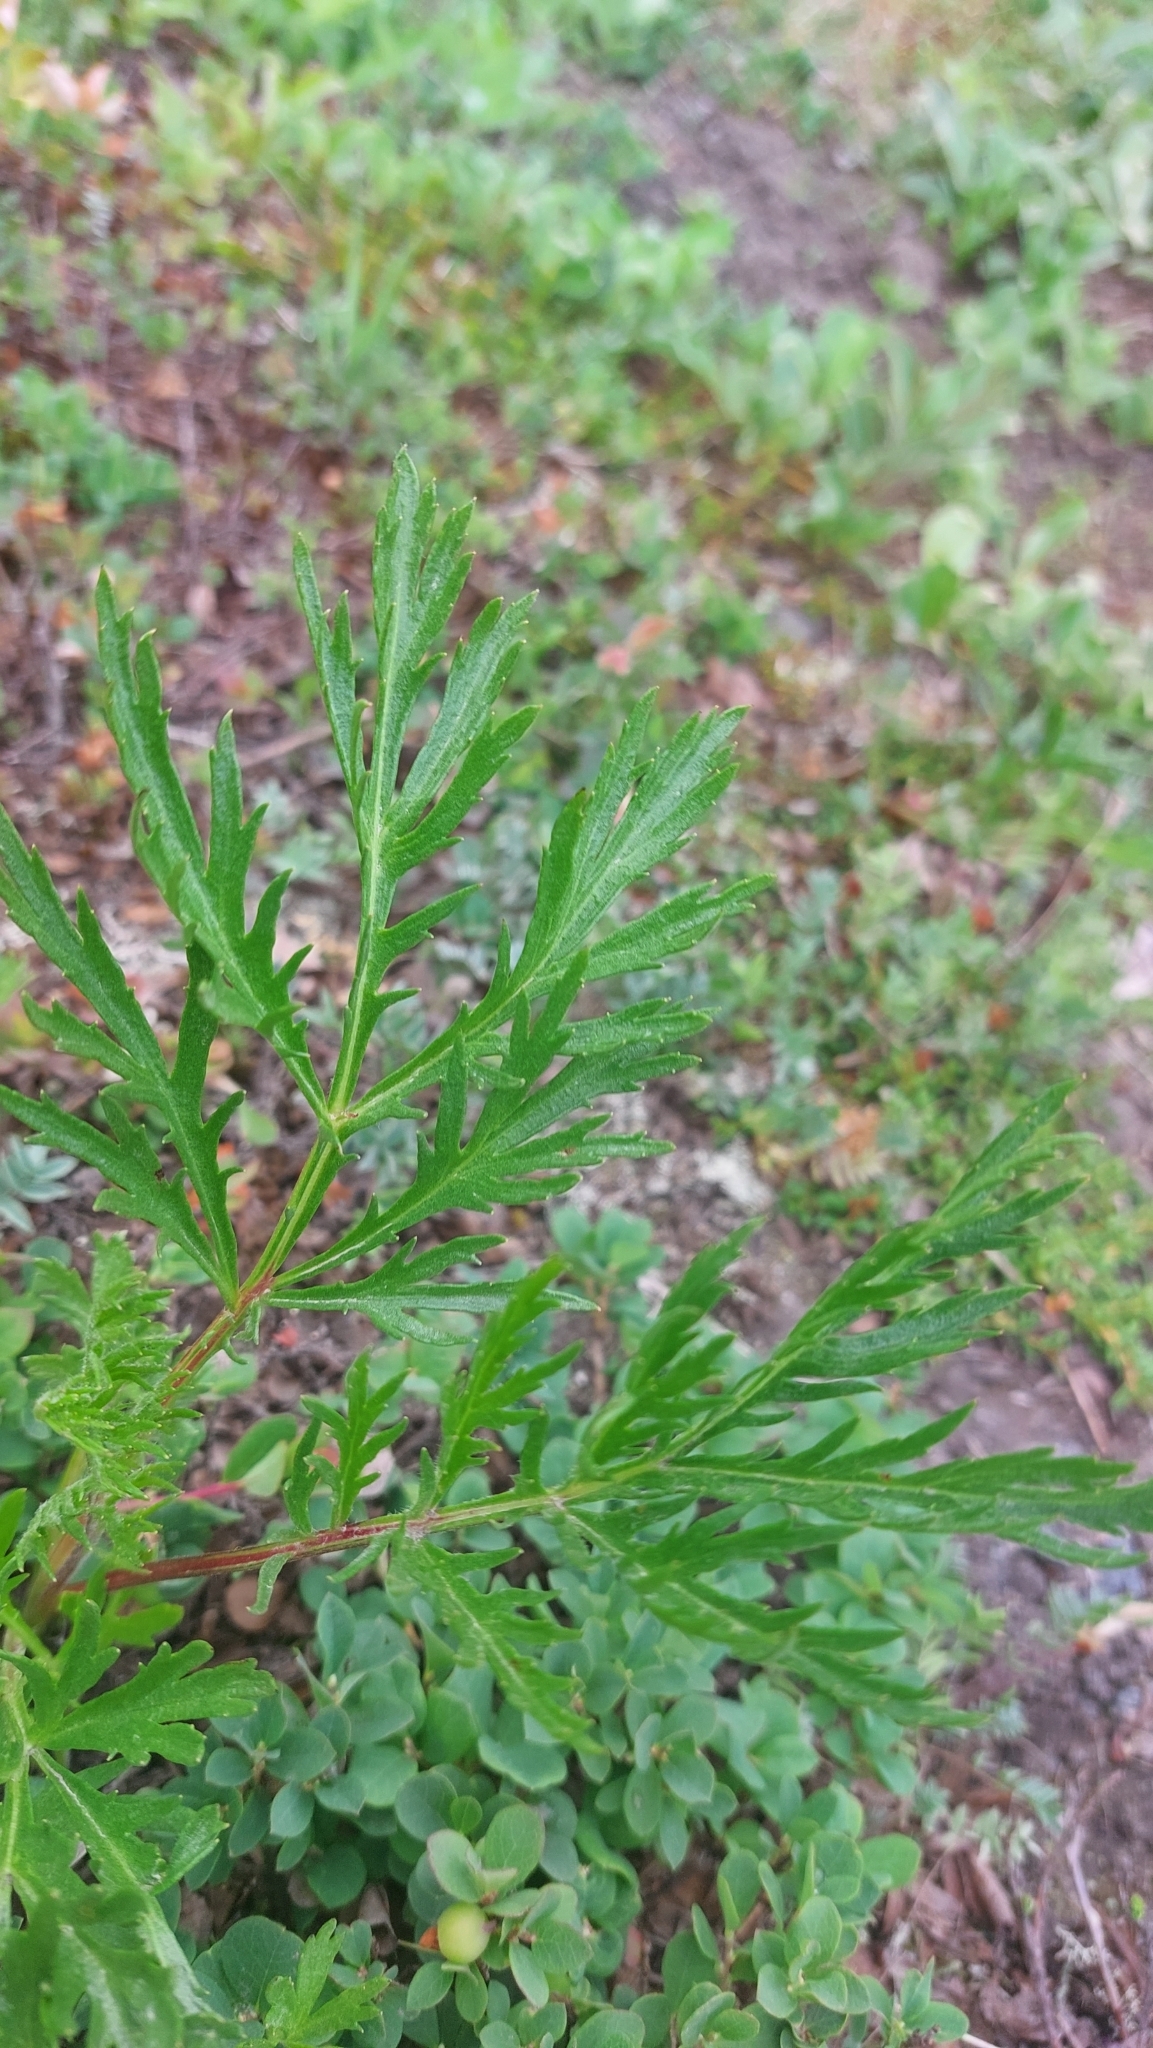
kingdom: Plantae
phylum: Tracheophyta
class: Magnoliopsida
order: Asterales
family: Asteraceae
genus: Artemisia
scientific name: Artemisia arctica
